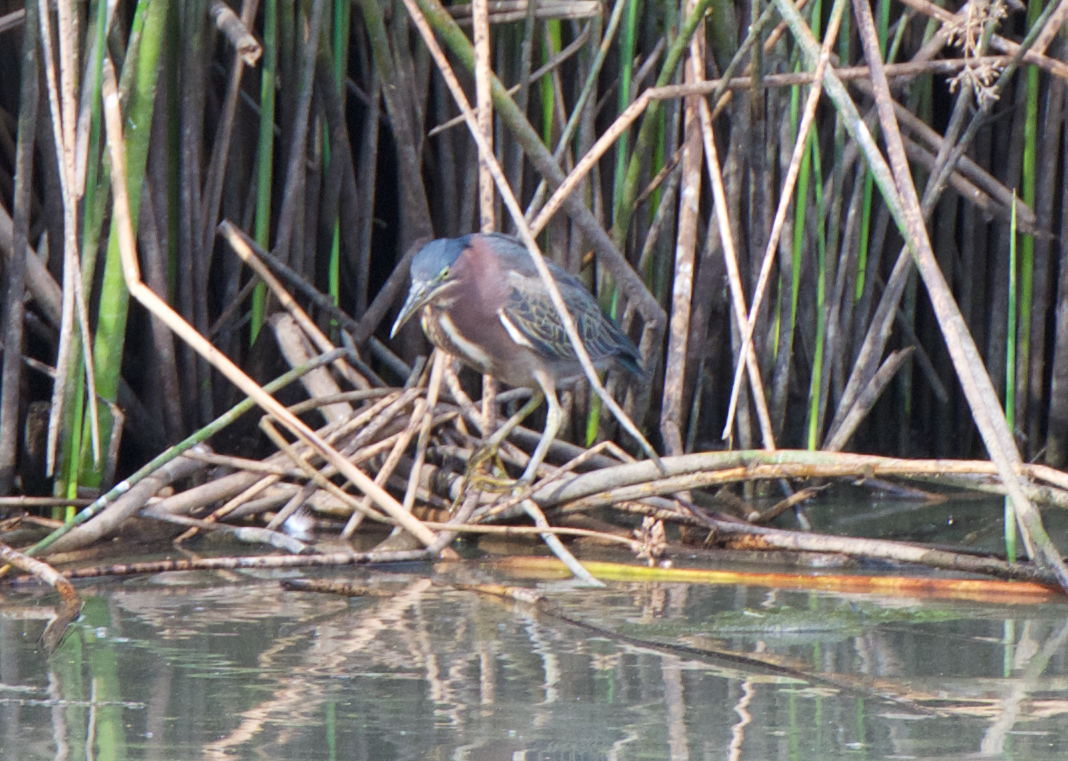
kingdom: Animalia
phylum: Chordata
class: Aves
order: Pelecaniformes
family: Ardeidae
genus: Butorides
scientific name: Butorides virescens
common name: Green heron
